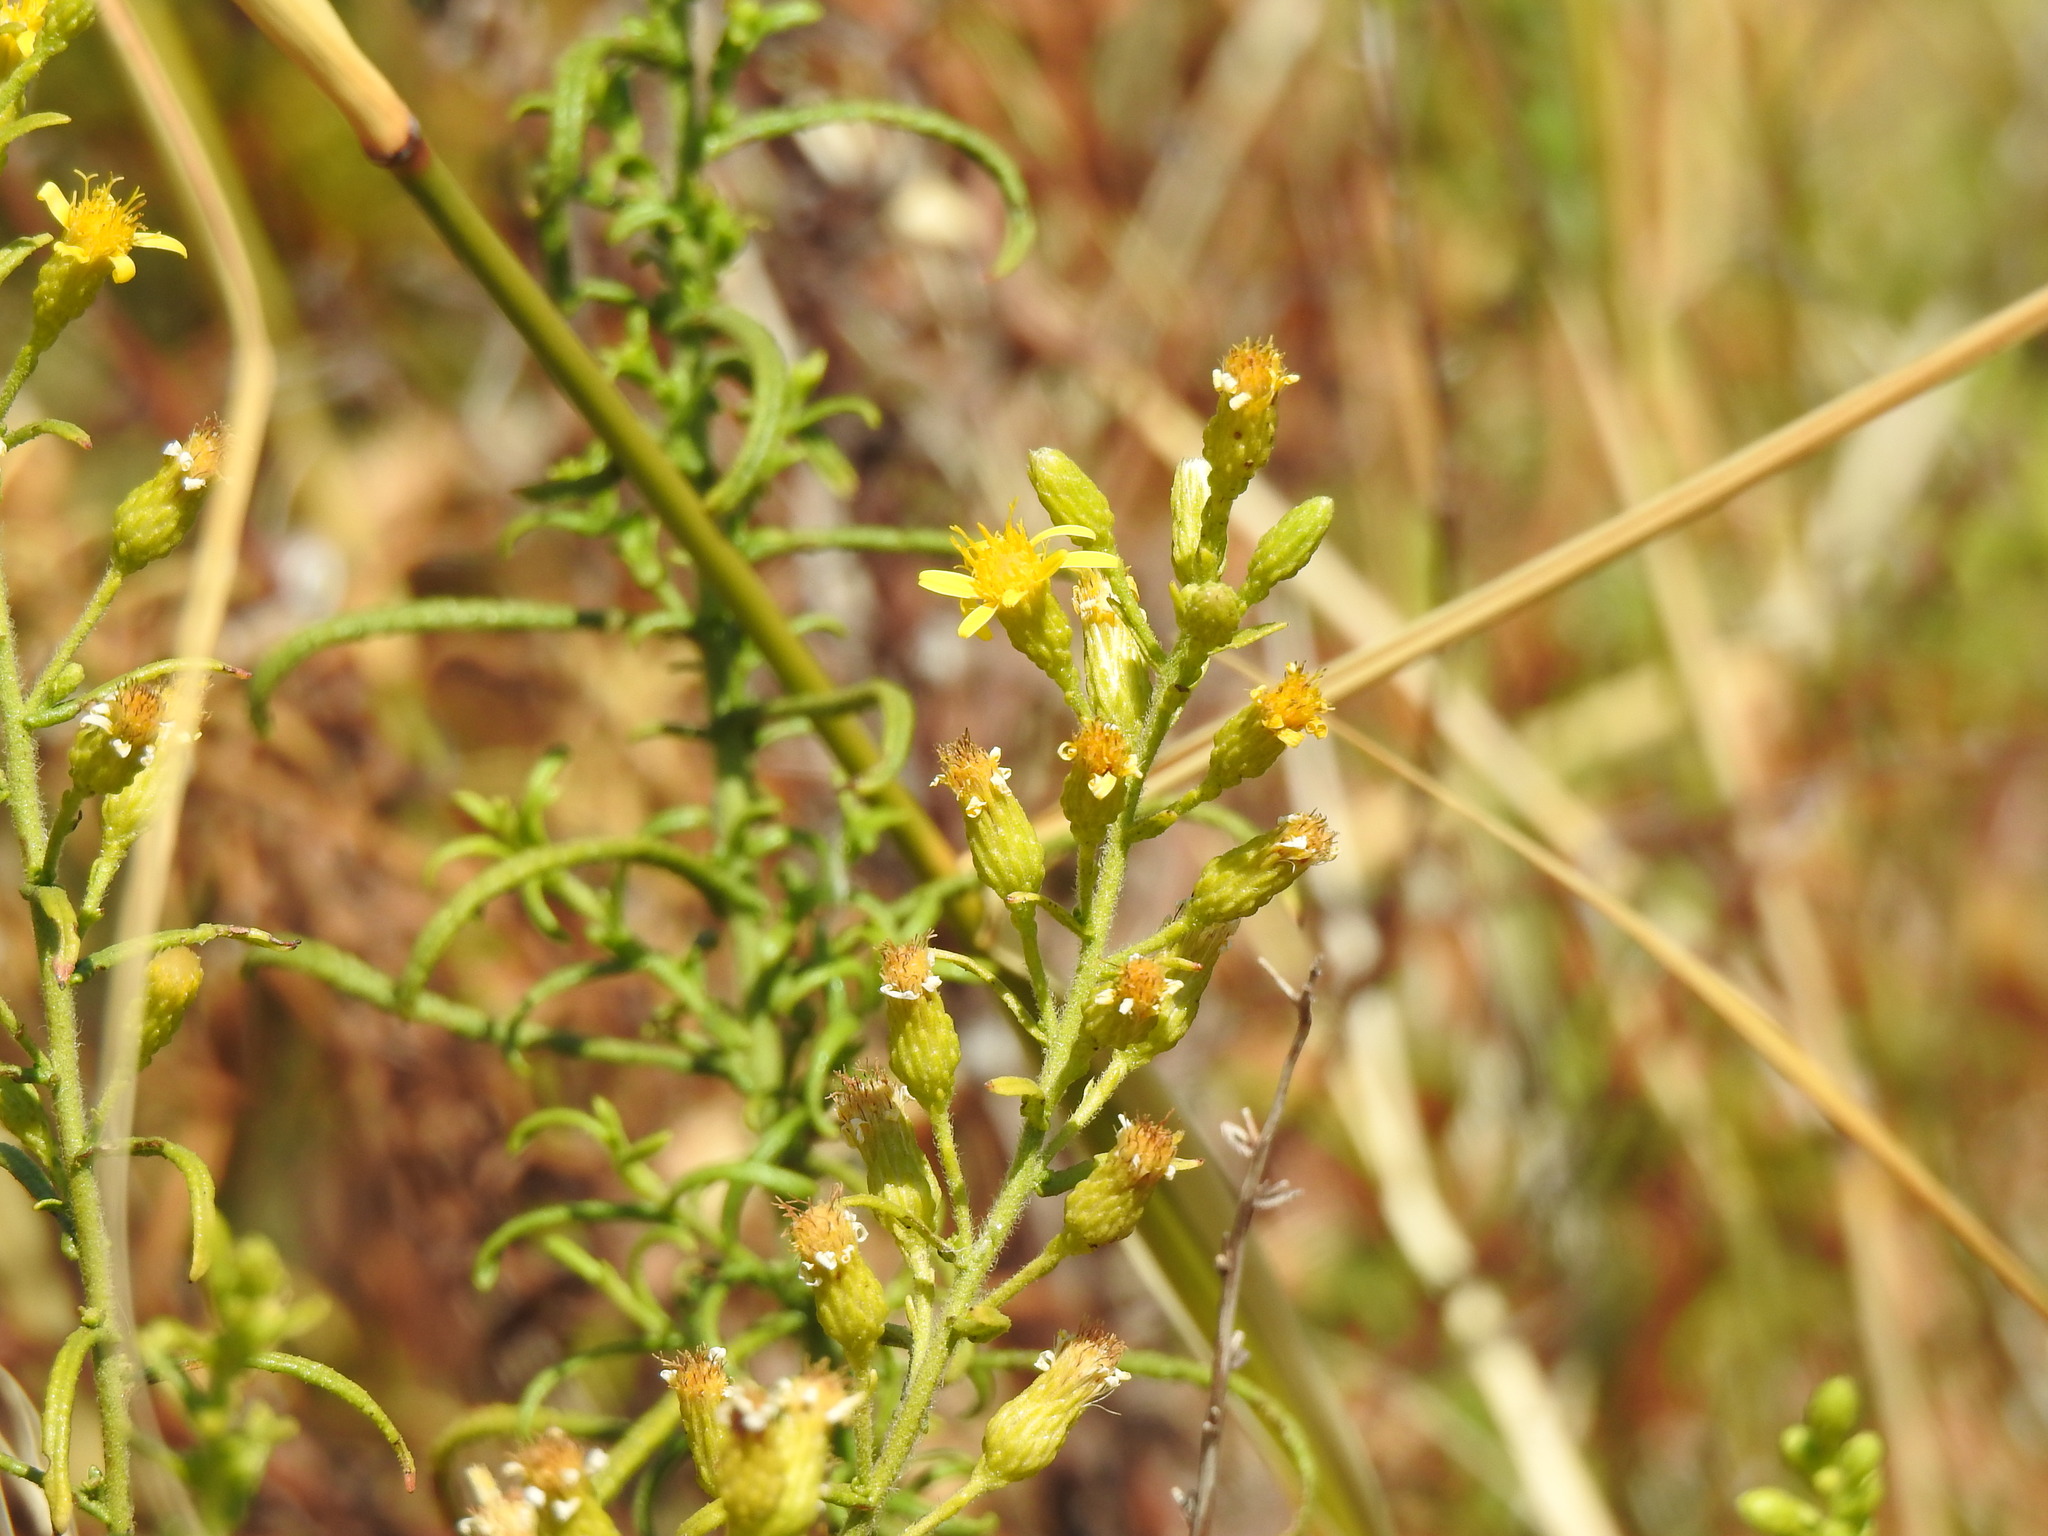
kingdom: Plantae
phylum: Tracheophyta
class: Magnoliopsida
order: Asterales
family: Asteraceae
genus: Dittrichia
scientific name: Dittrichia viscosa
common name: Woody fleabane
